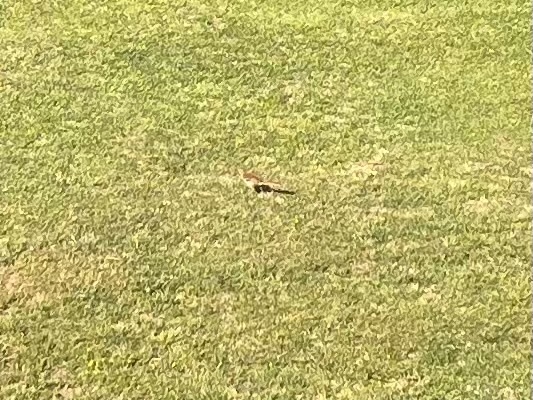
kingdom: Animalia
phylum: Chordata
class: Aves
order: Passeriformes
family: Mimidae
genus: Toxostoma
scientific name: Toxostoma rufum
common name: Brown thrasher
